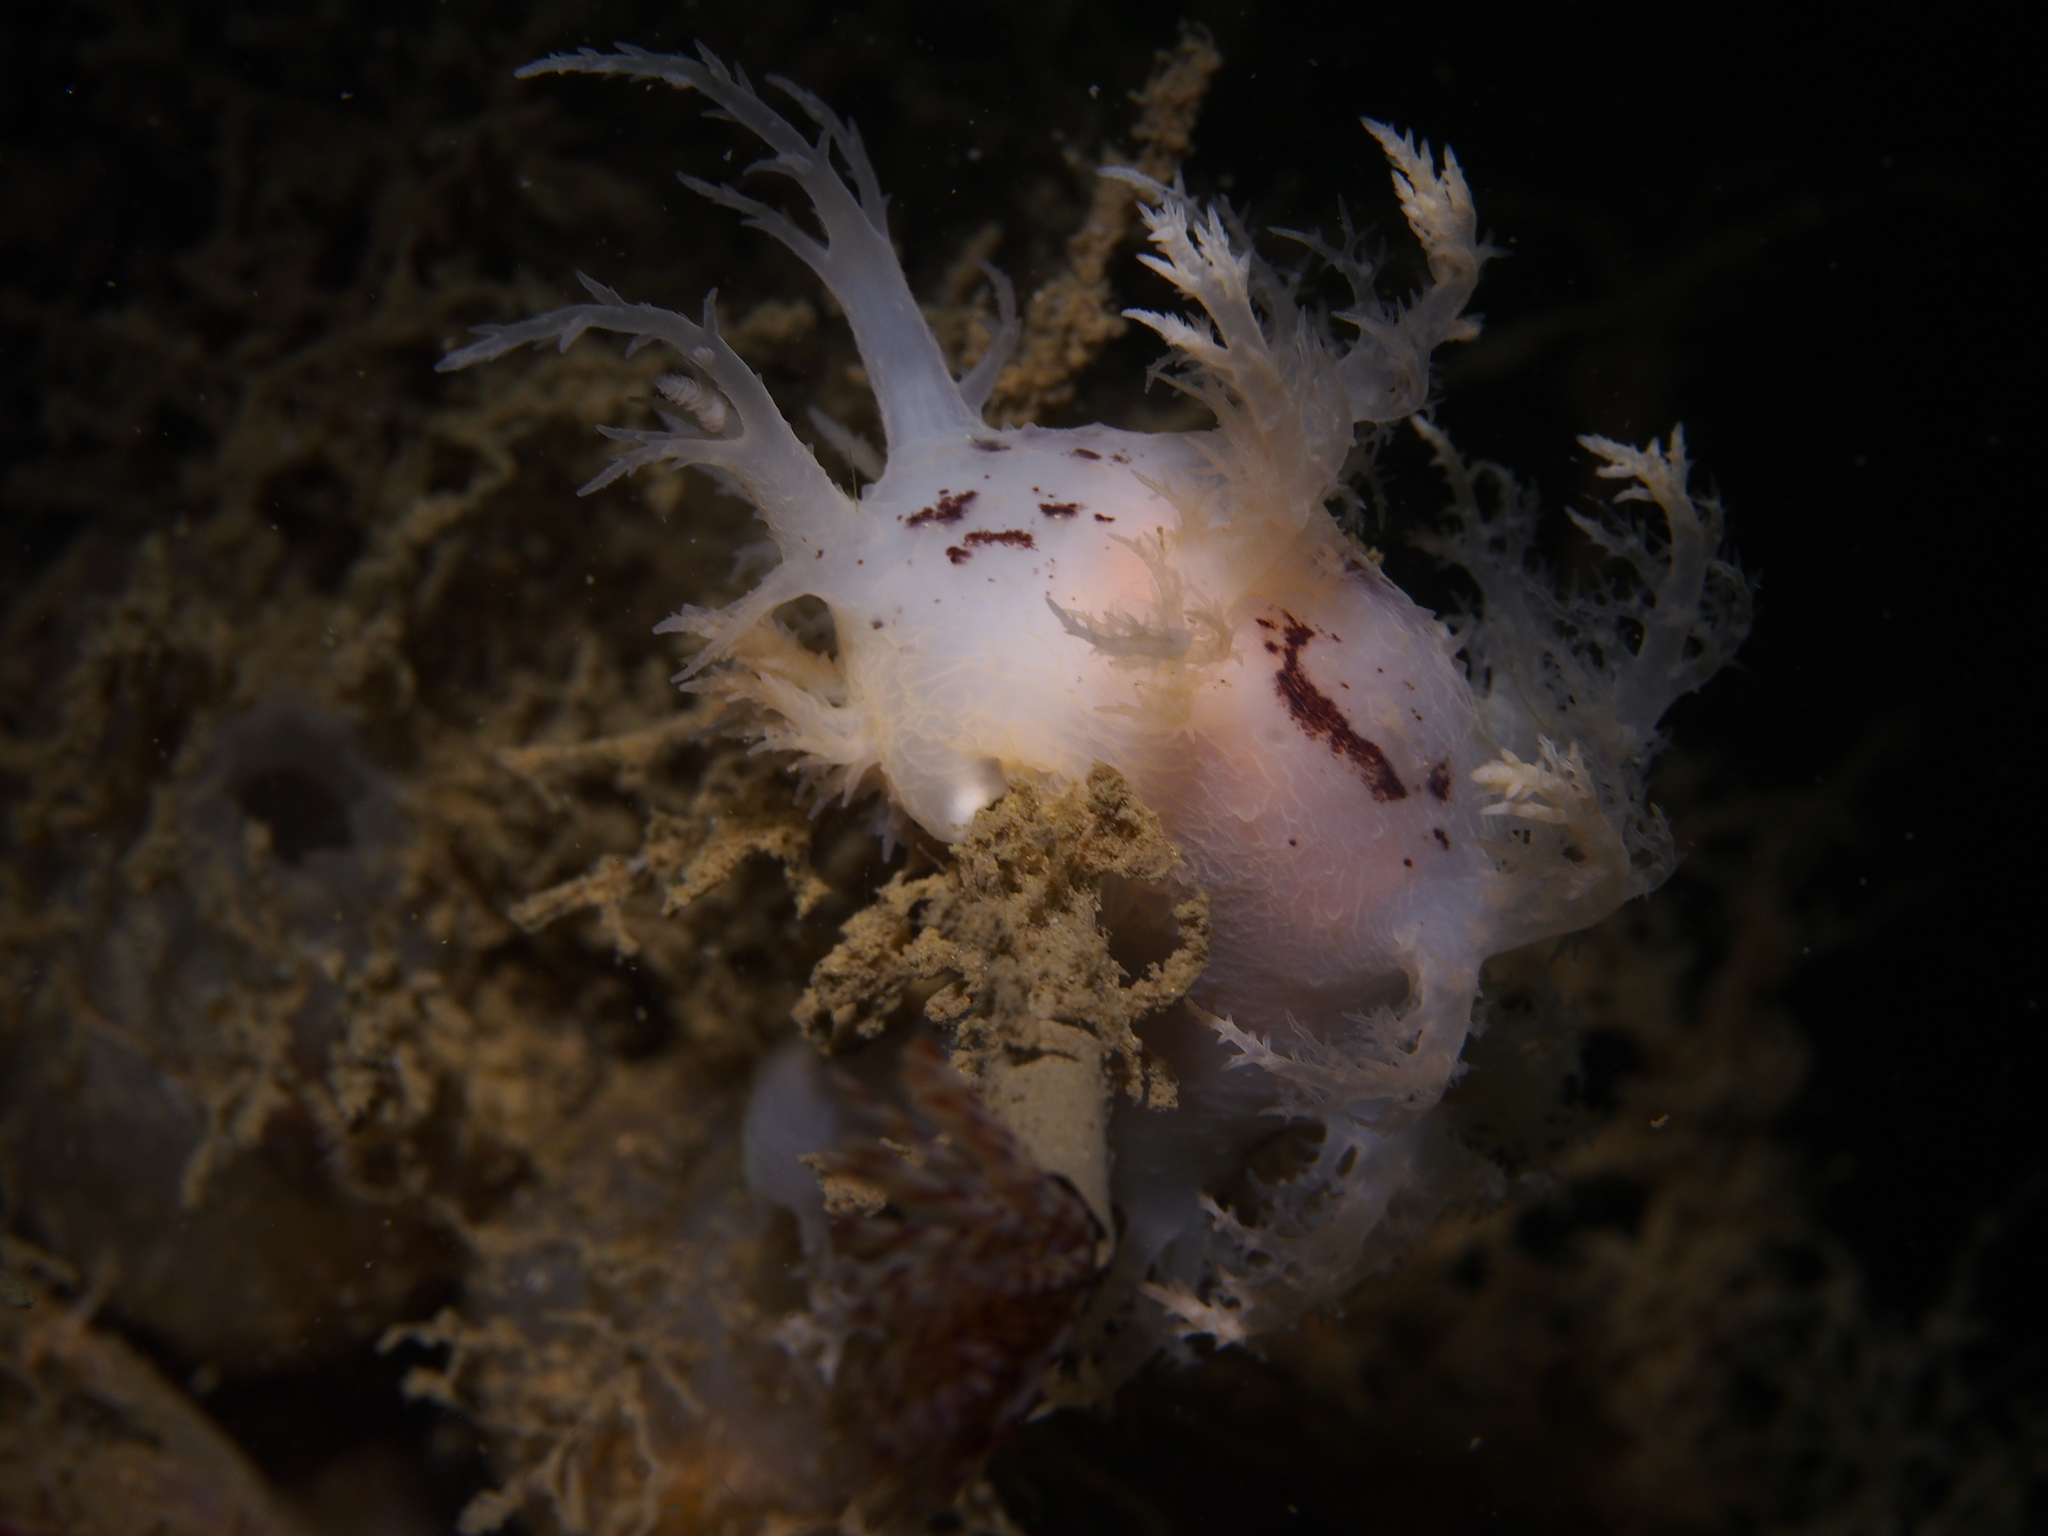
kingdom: Animalia
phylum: Mollusca
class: Gastropoda
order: Nudibranchia
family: Dendronotidae
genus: Dendronotus
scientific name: Dendronotus europaeus
